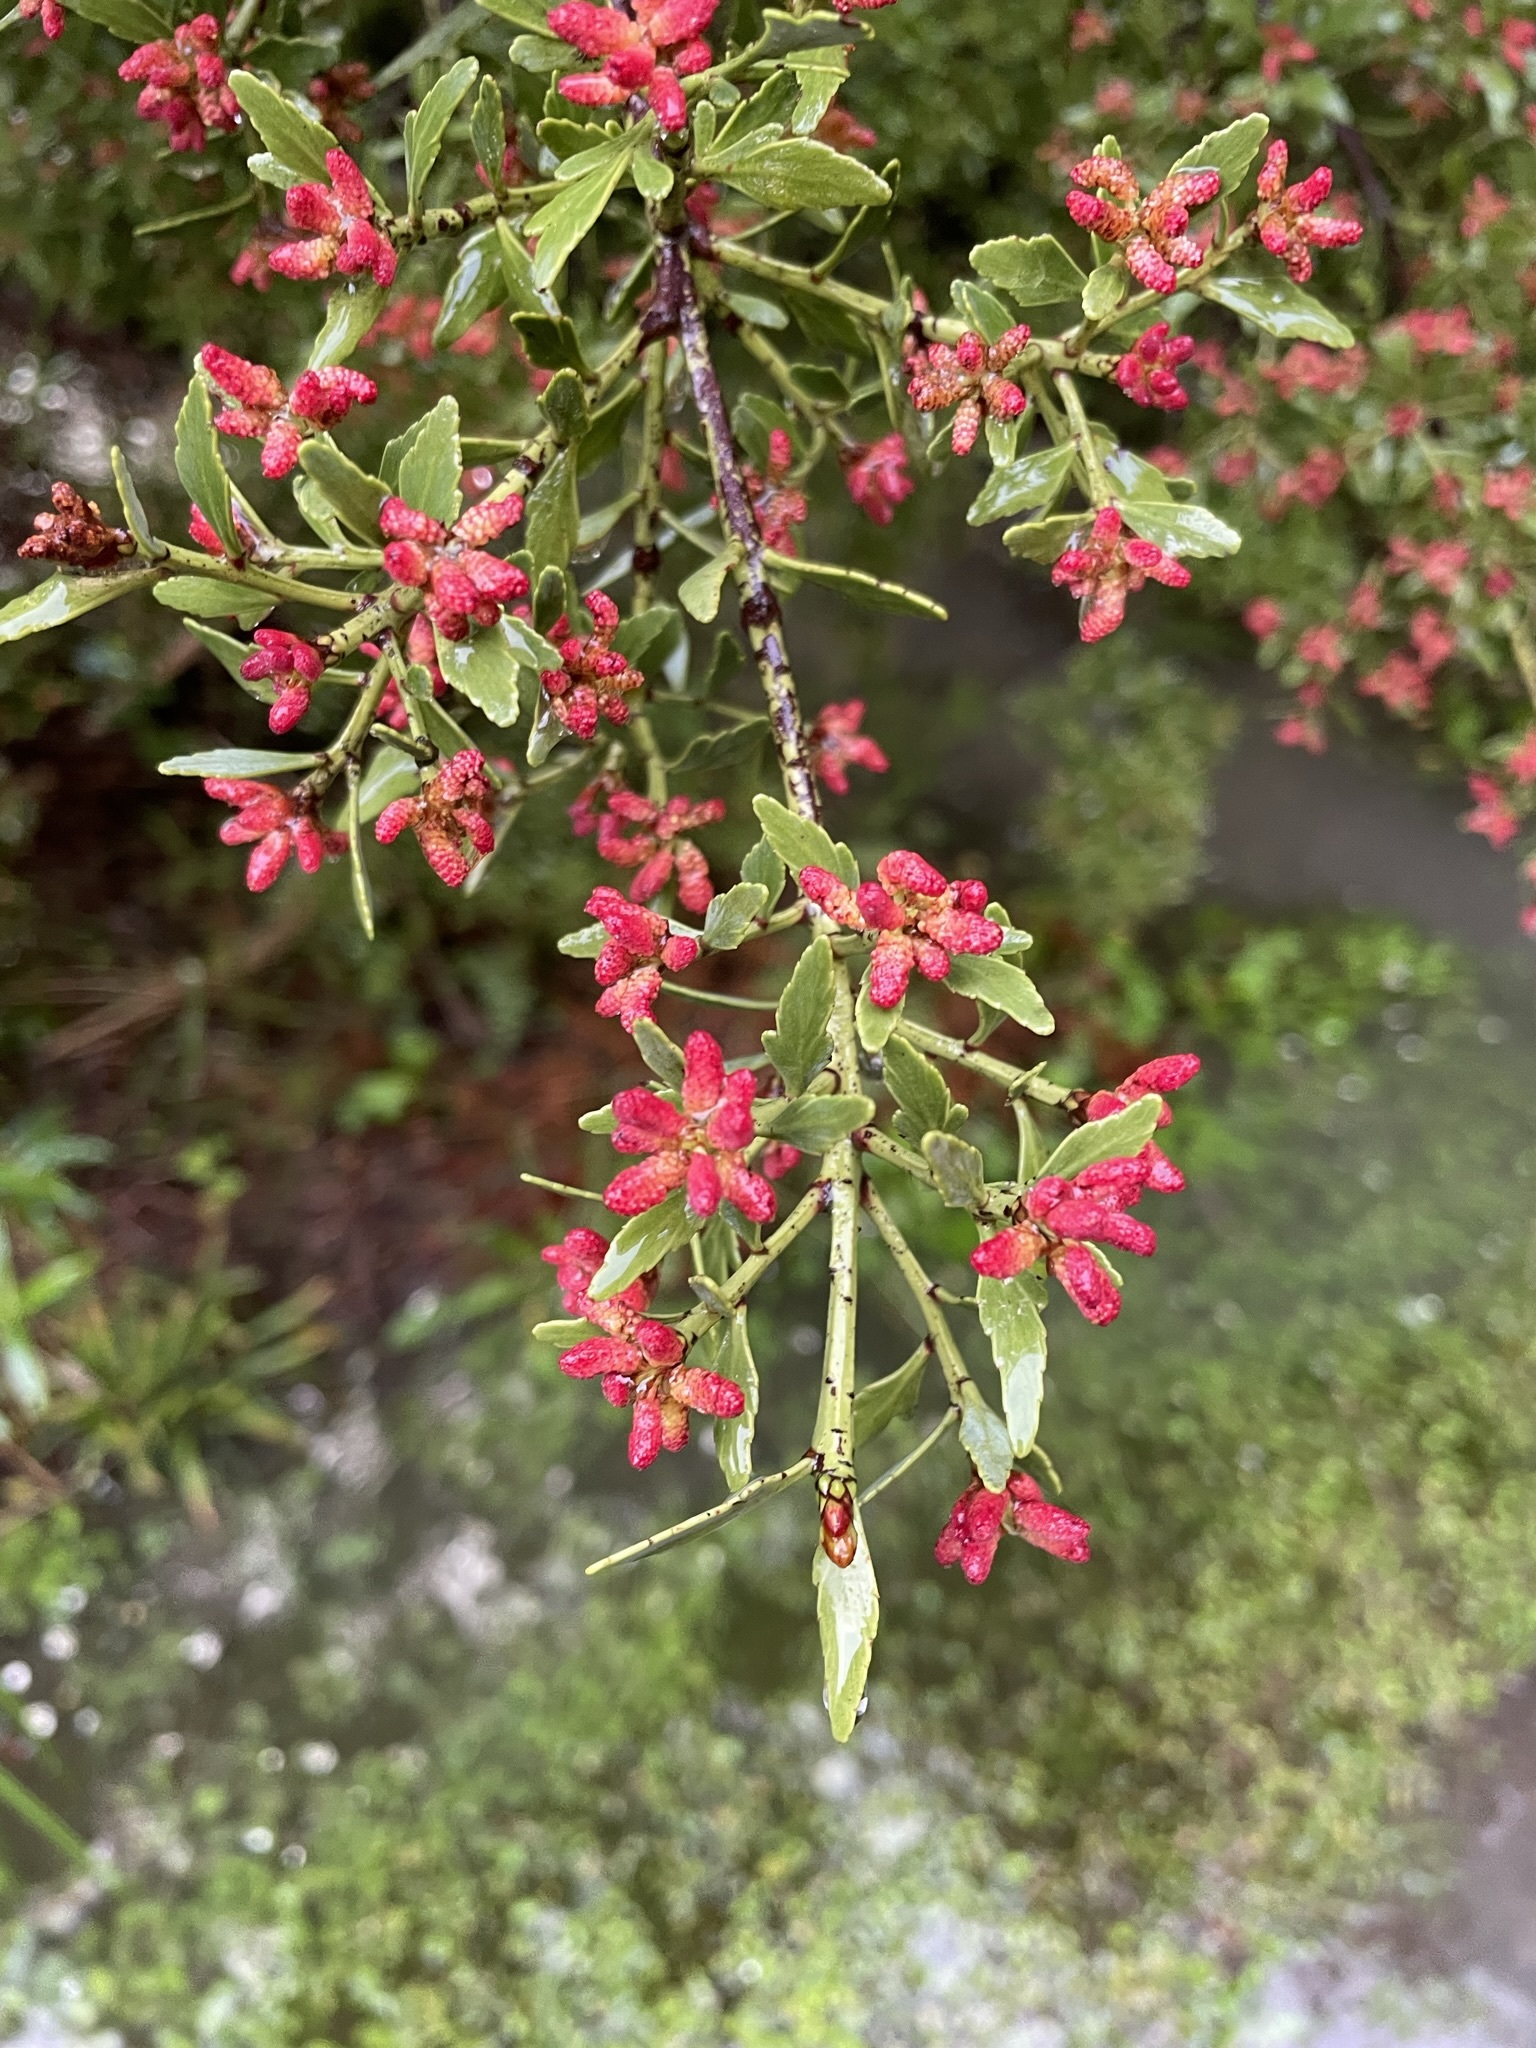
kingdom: Plantae
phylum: Tracheophyta
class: Pinopsida
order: Pinales
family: Phyllocladaceae
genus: Phyllocladus
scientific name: Phyllocladus trichomanoides
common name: Celery pine
